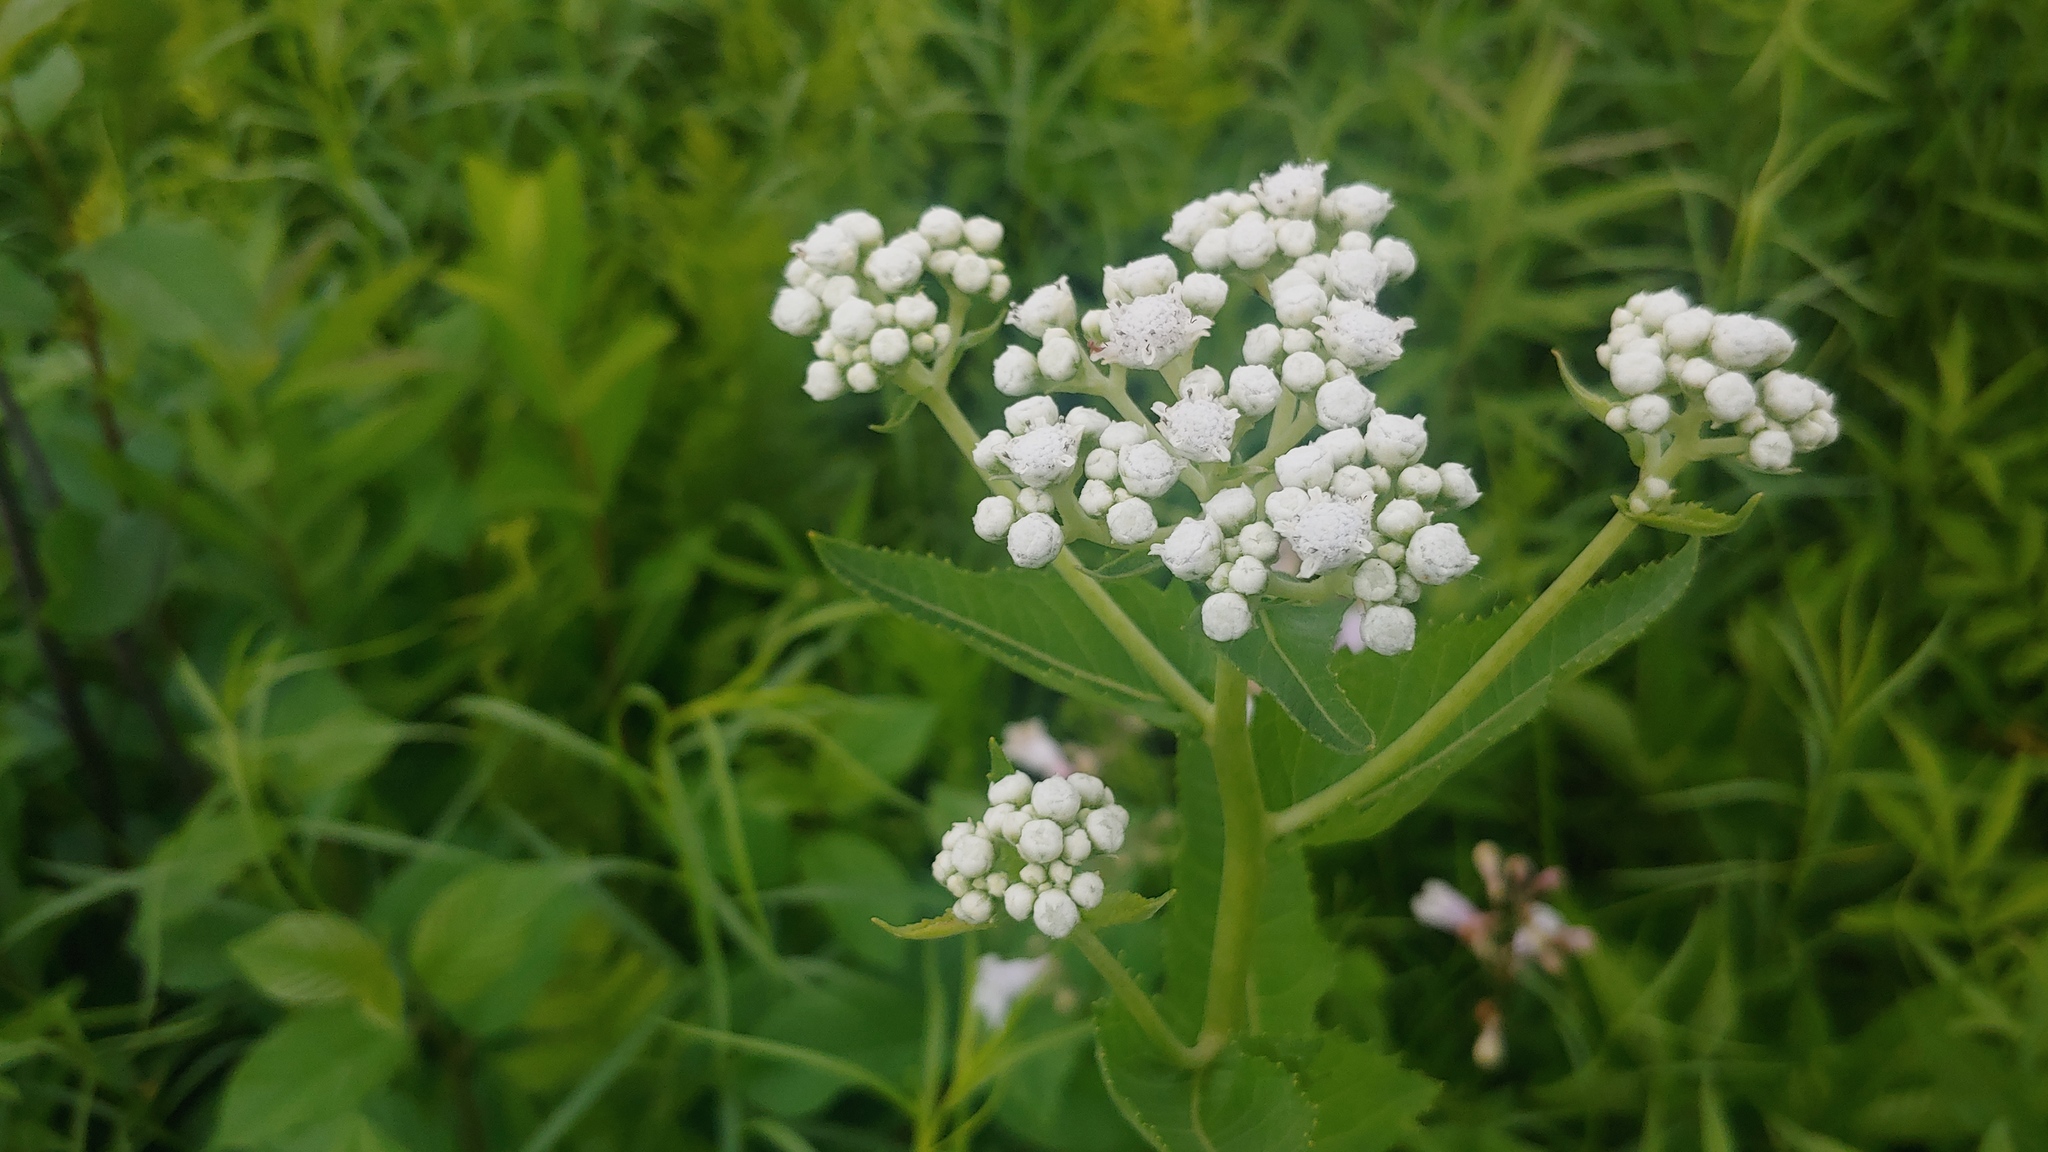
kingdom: Plantae
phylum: Tracheophyta
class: Magnoliopsida
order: Asterales
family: Asteraceae
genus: Parthenium
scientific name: Parthenium integrifolium
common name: American feverfew
